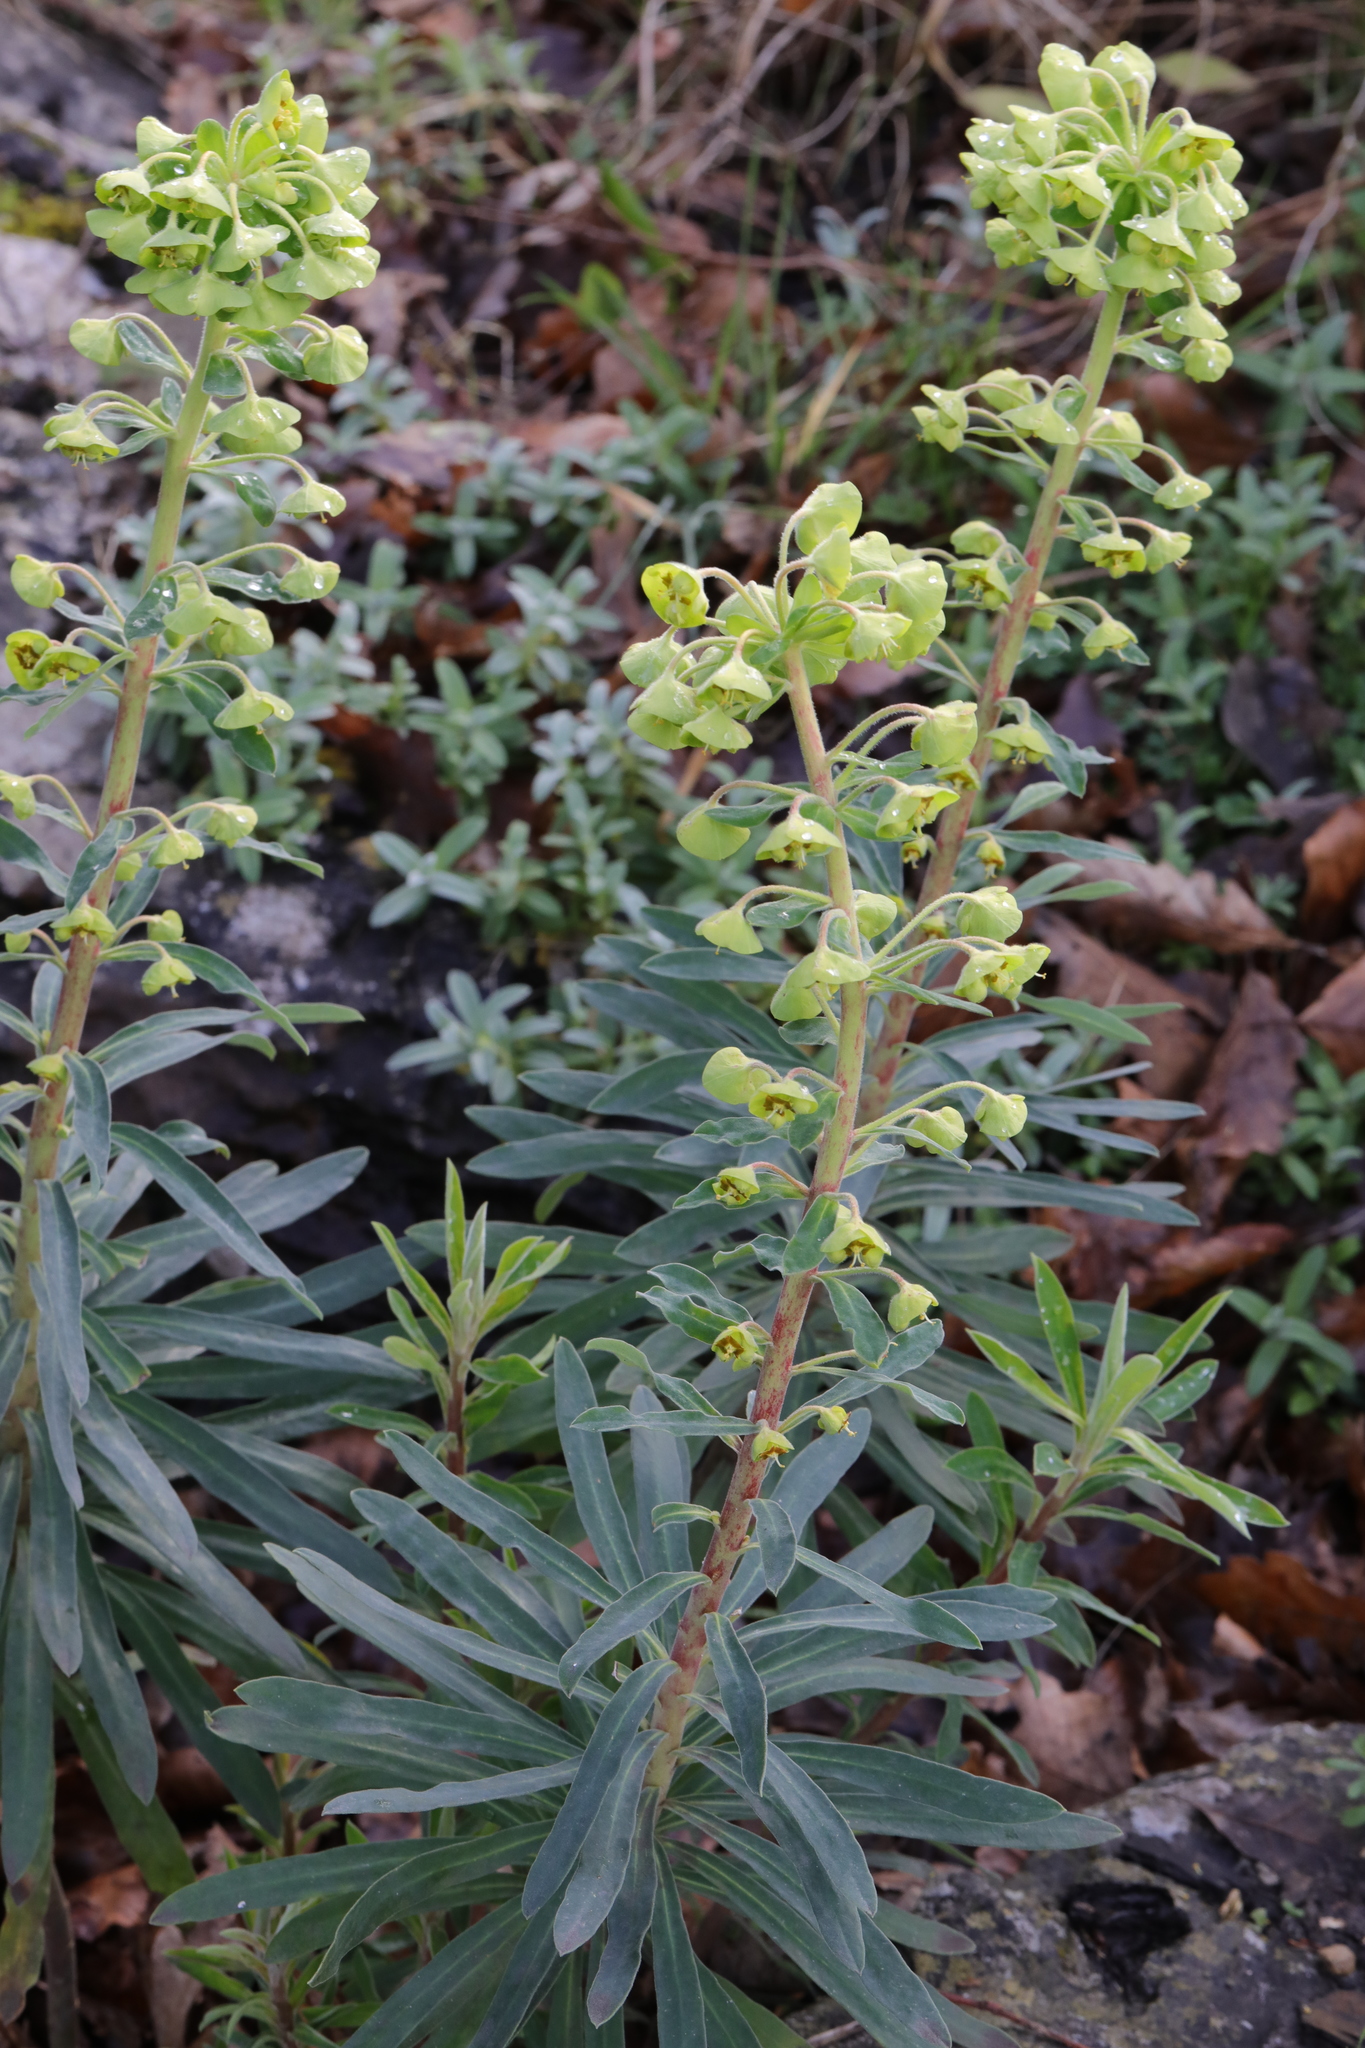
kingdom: Plantae
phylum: Tracheophyta
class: Magnoliopsida
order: Malpighiales
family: Euphorbiaceae
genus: Euphorbia
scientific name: Euphorbia characias
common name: Mediterranean spurge
